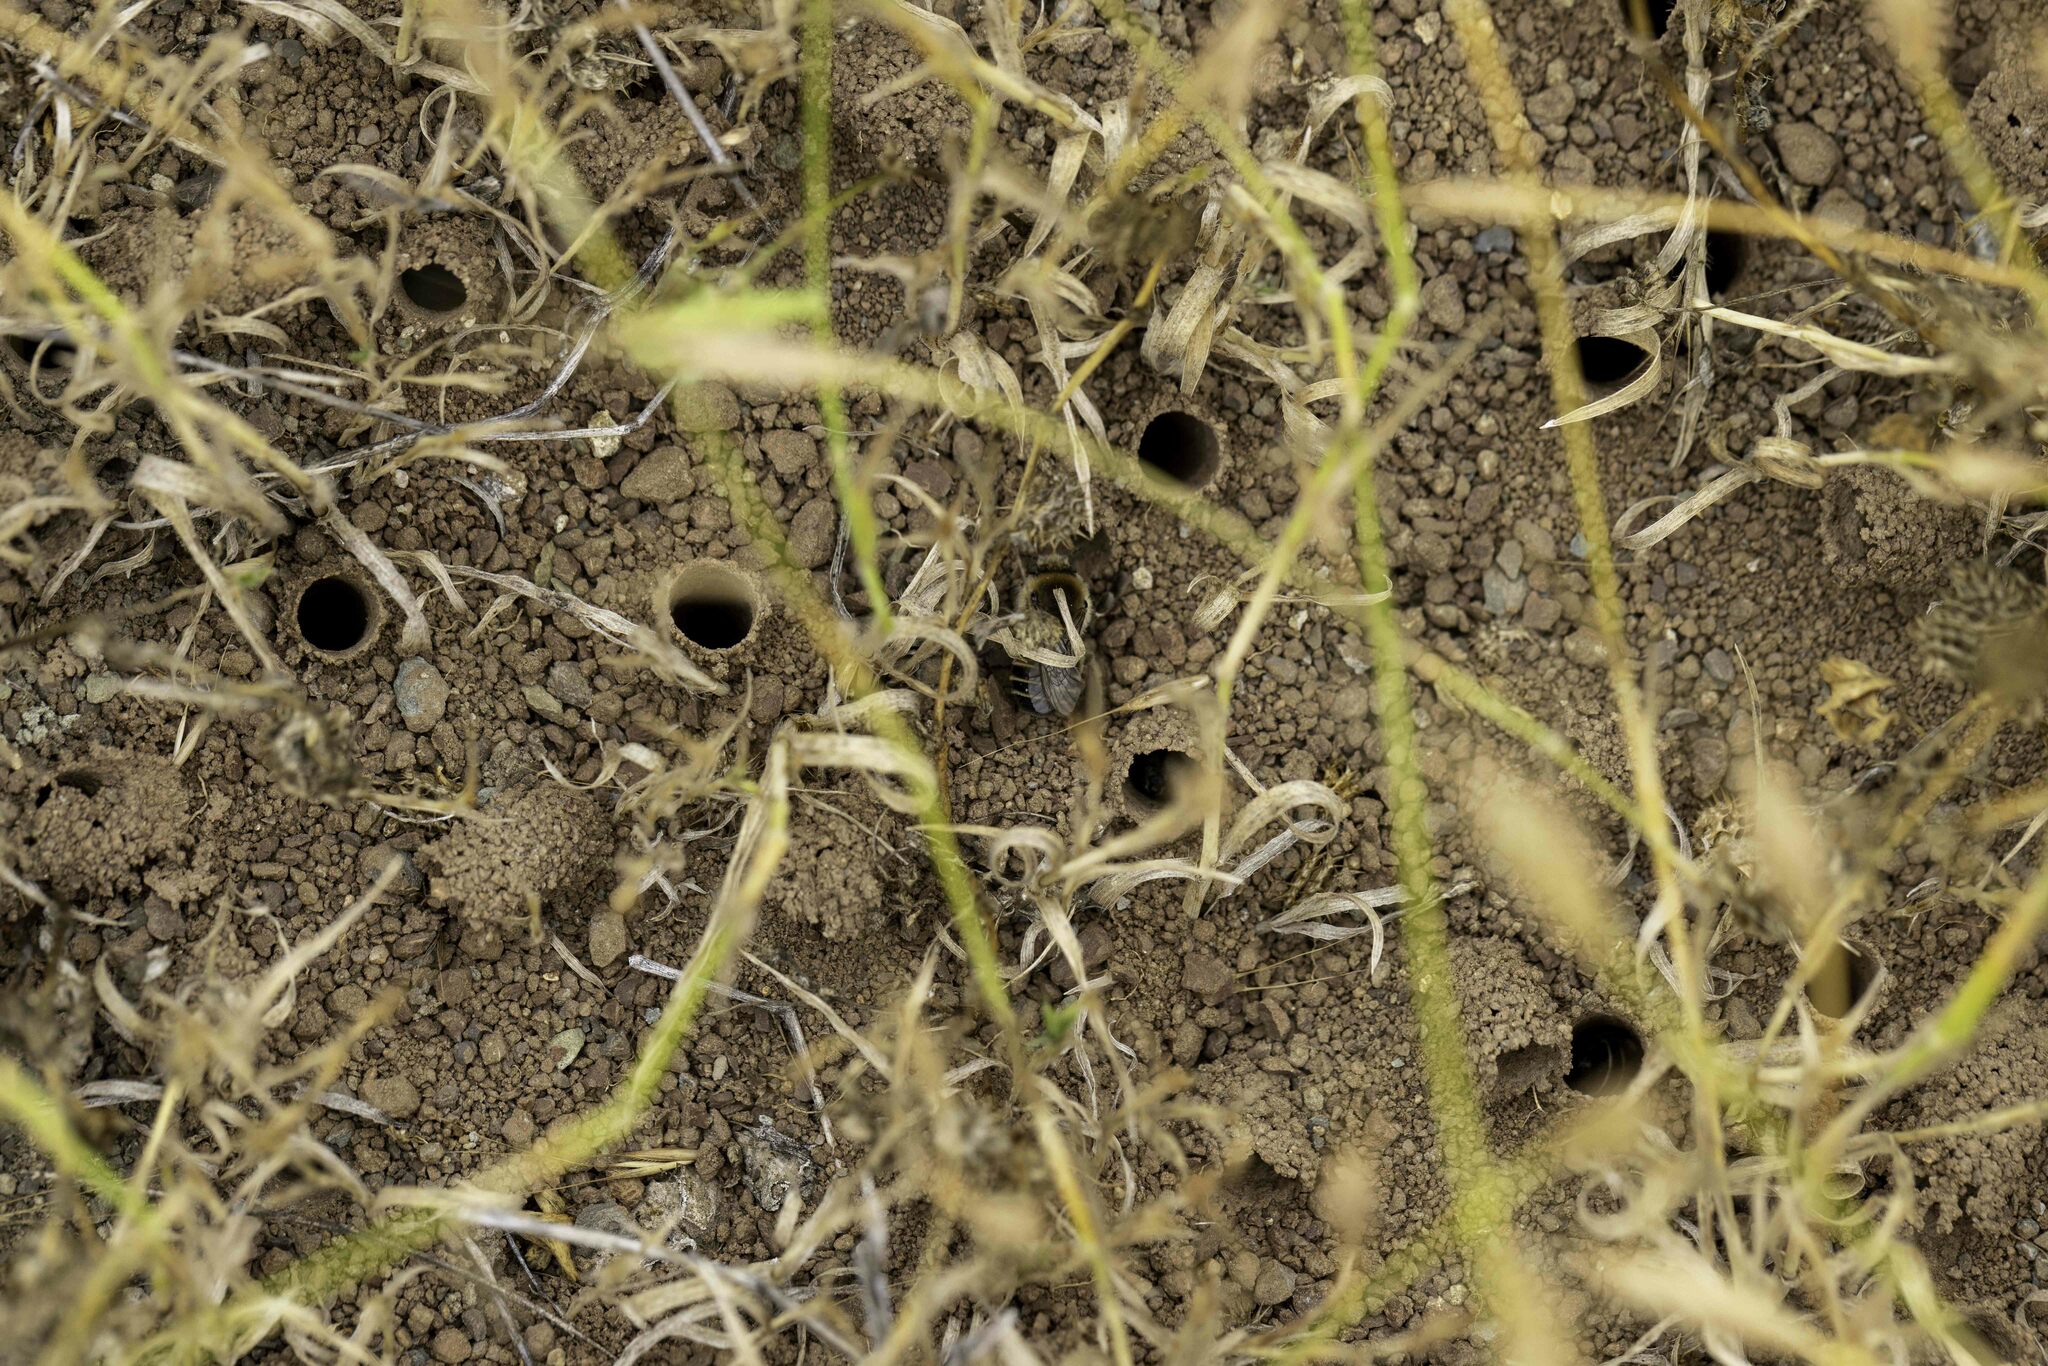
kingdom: Animalia
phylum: Arthropoda
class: Insecta
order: Hymenoptera
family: Apidae
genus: Diadasia
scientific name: Diadasia bituberculata
